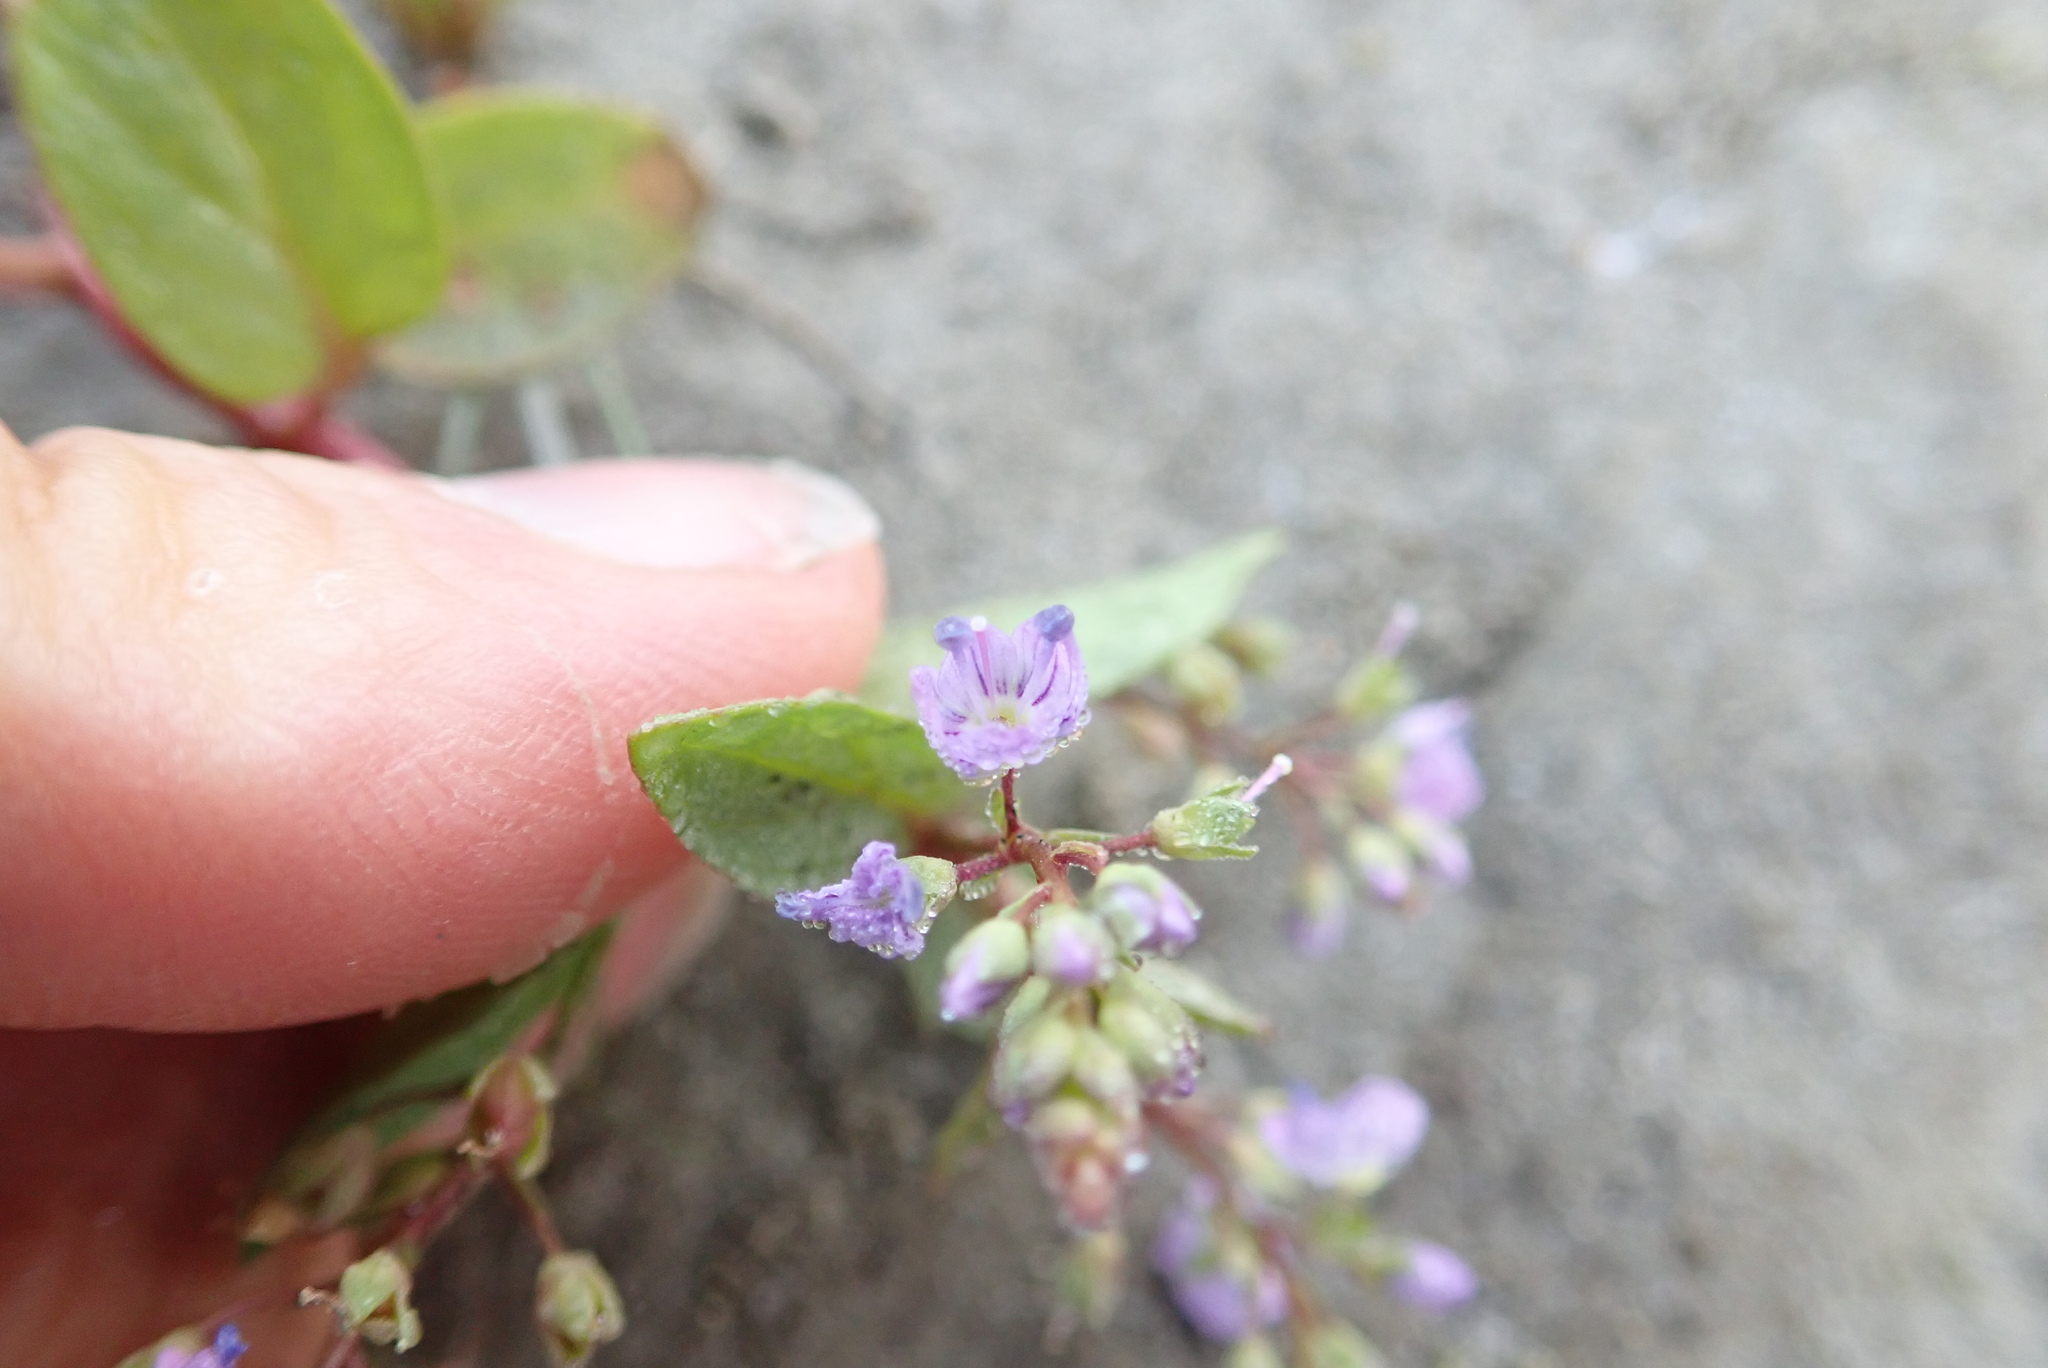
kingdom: Plantae
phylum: Tracheophyta
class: Magnoliopsida
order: Lamiales
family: Plantaginaceae
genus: Veronica
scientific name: Veronica anagallis-aquatica
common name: Water speedwell
